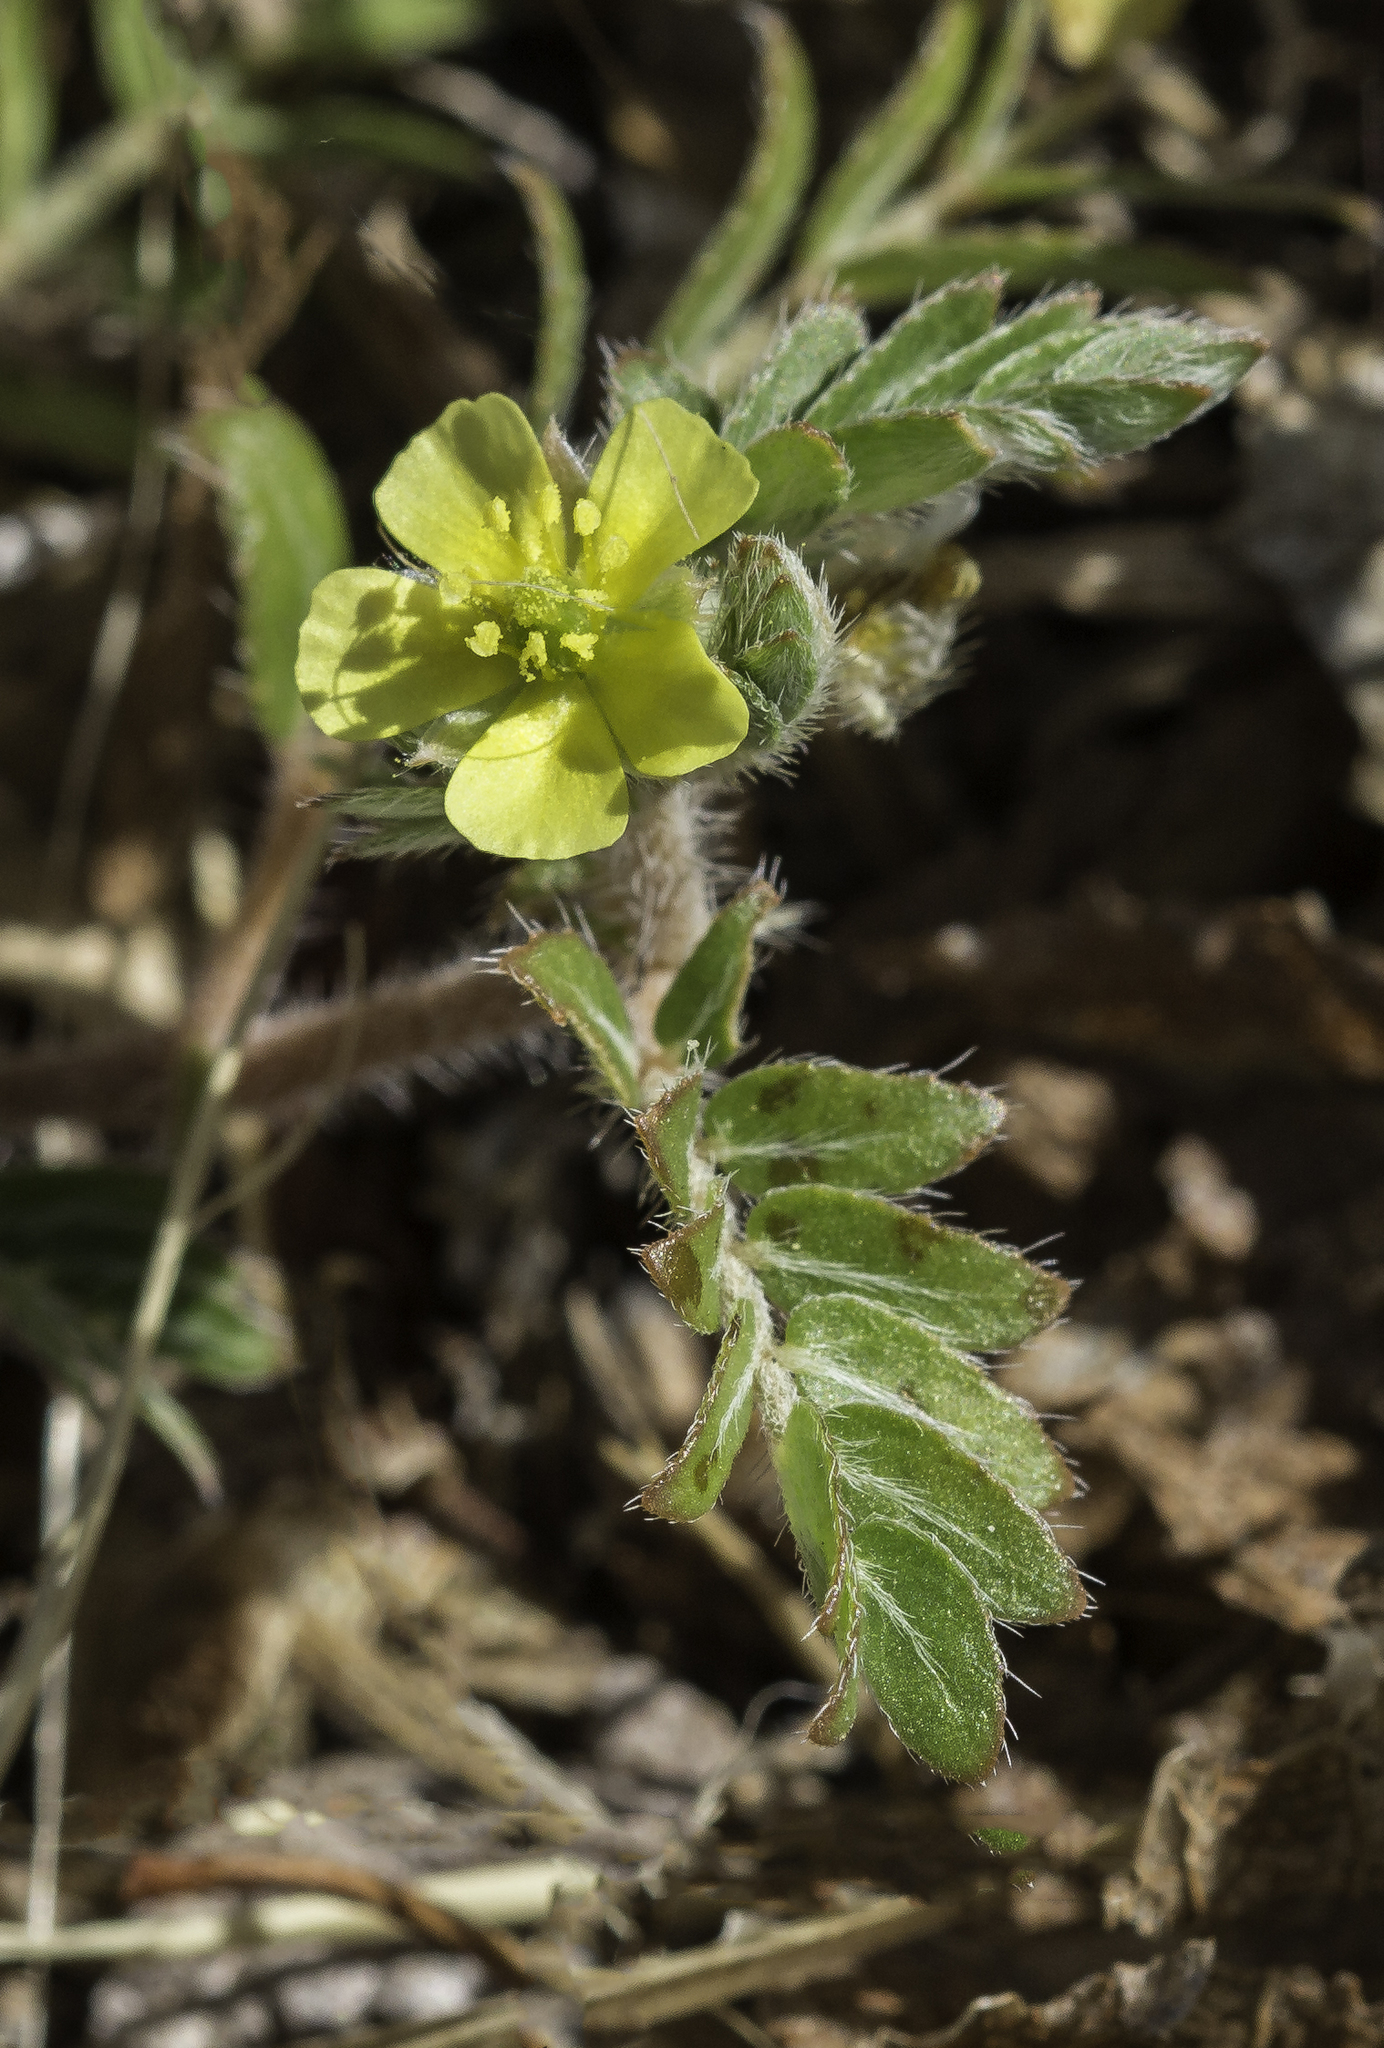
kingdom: Plantae
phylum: Tracheophyta
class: Magnoliopsida
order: Zygophyllales
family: Zygophyllaceae
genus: Tribulus
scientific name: Tribulus terrestris
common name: Puncturevine
